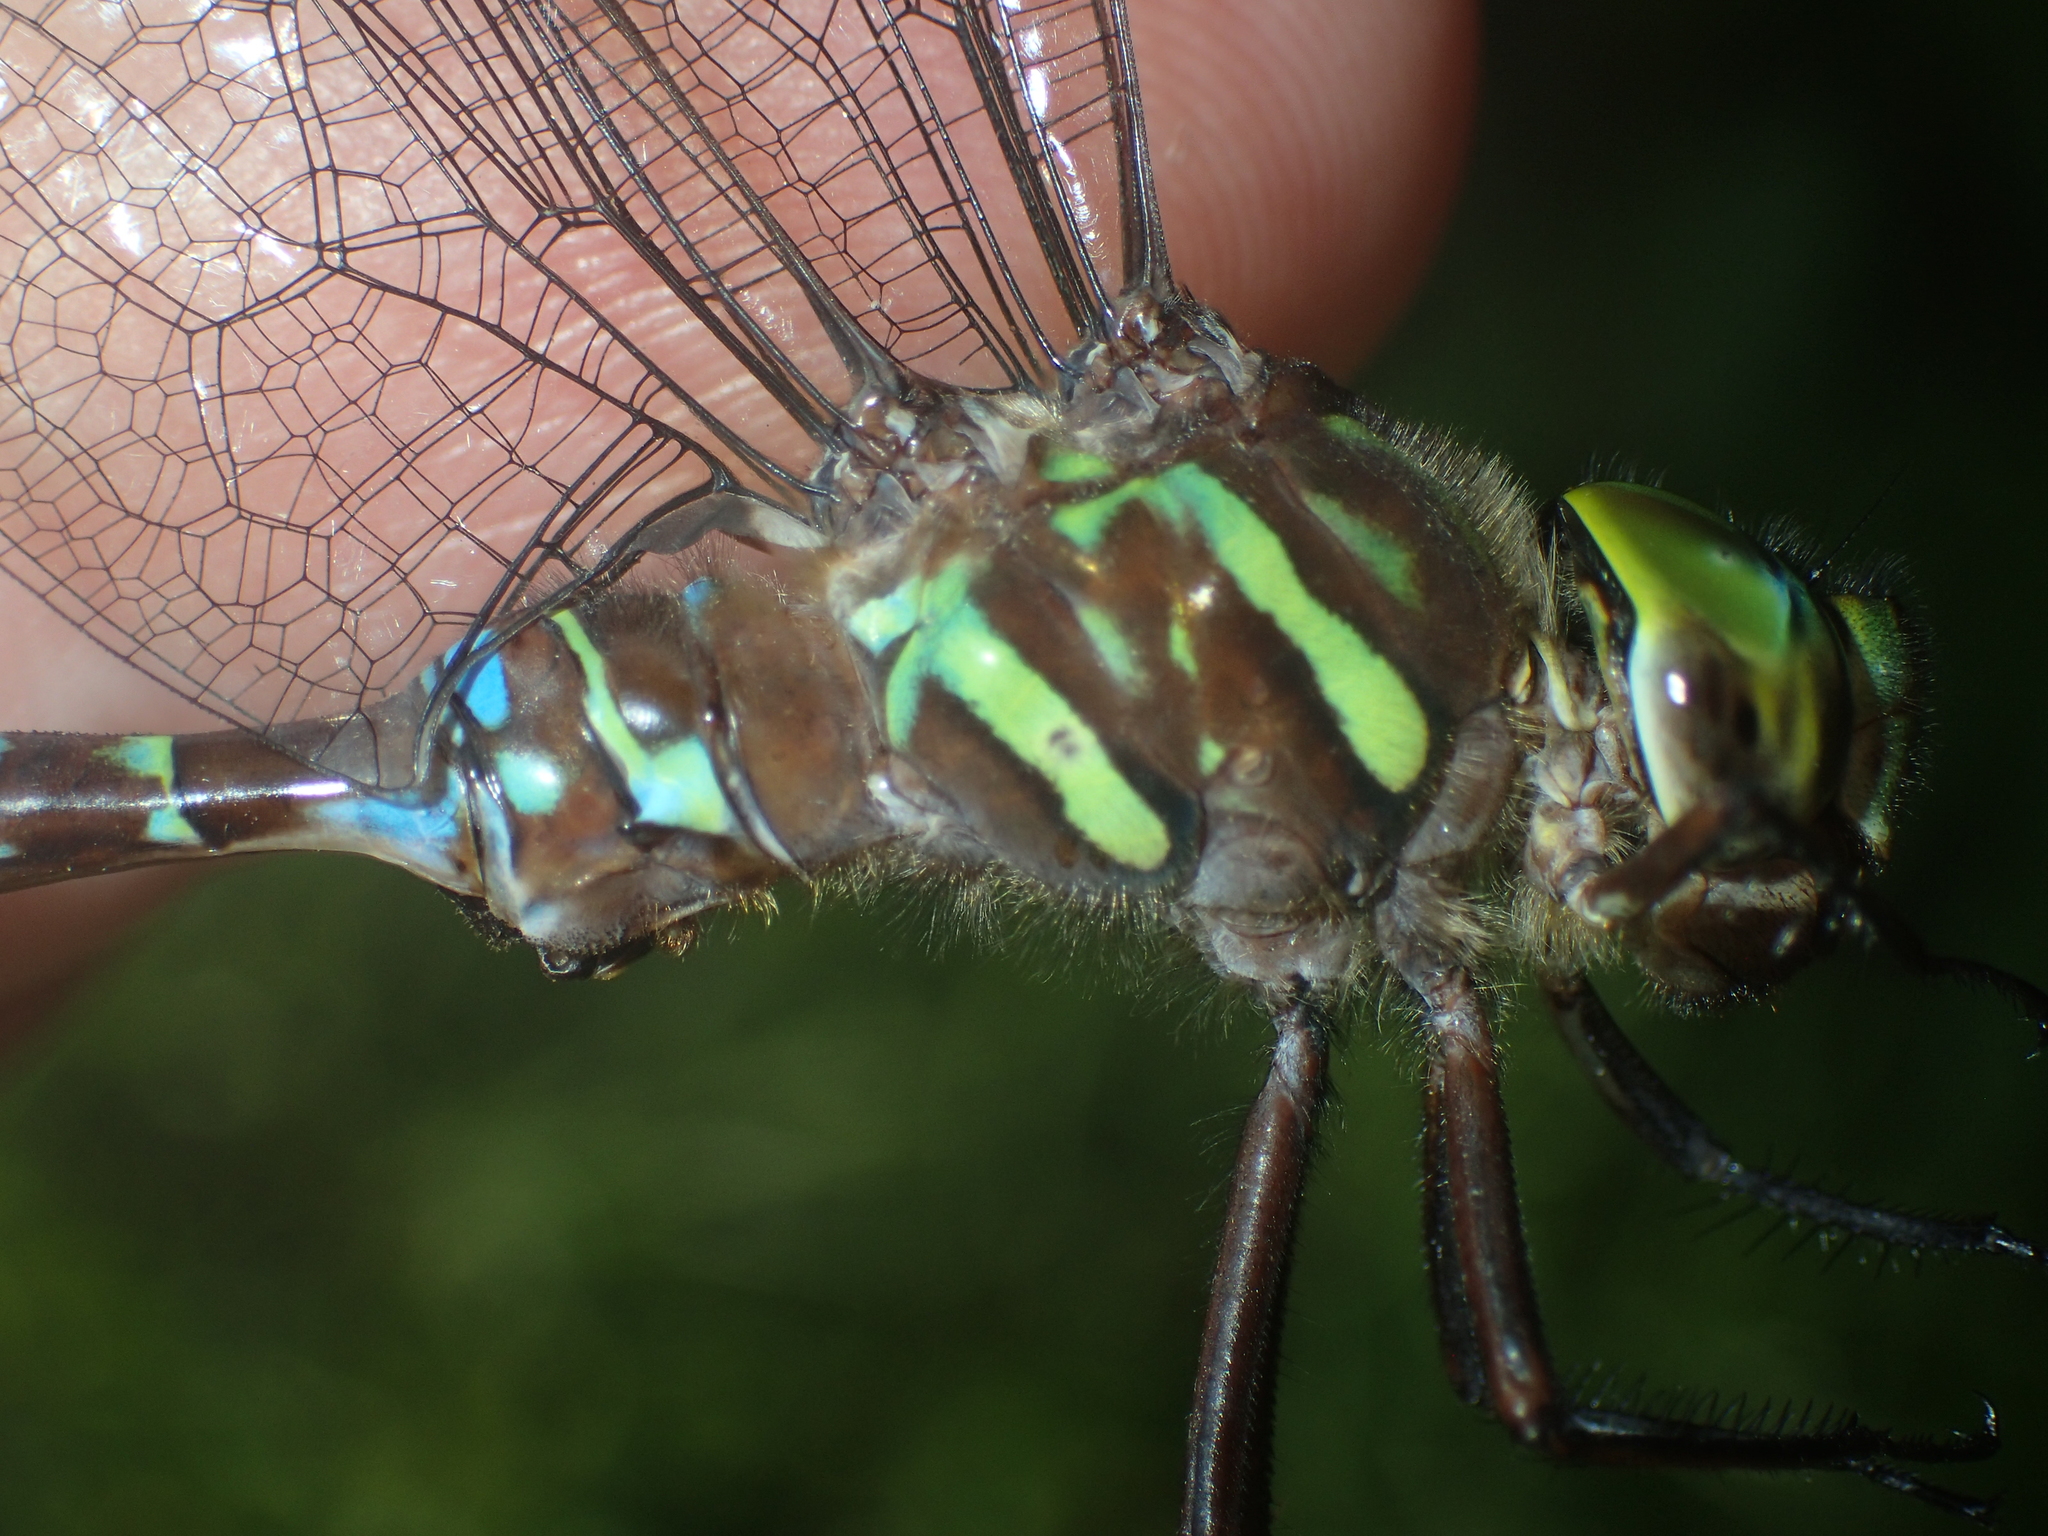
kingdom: Animalia
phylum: Arthropoda
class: Insecta
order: Odonata
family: Aeshnidae
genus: Aeshna
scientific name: Aeshna umbrosa
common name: Shadow darner
